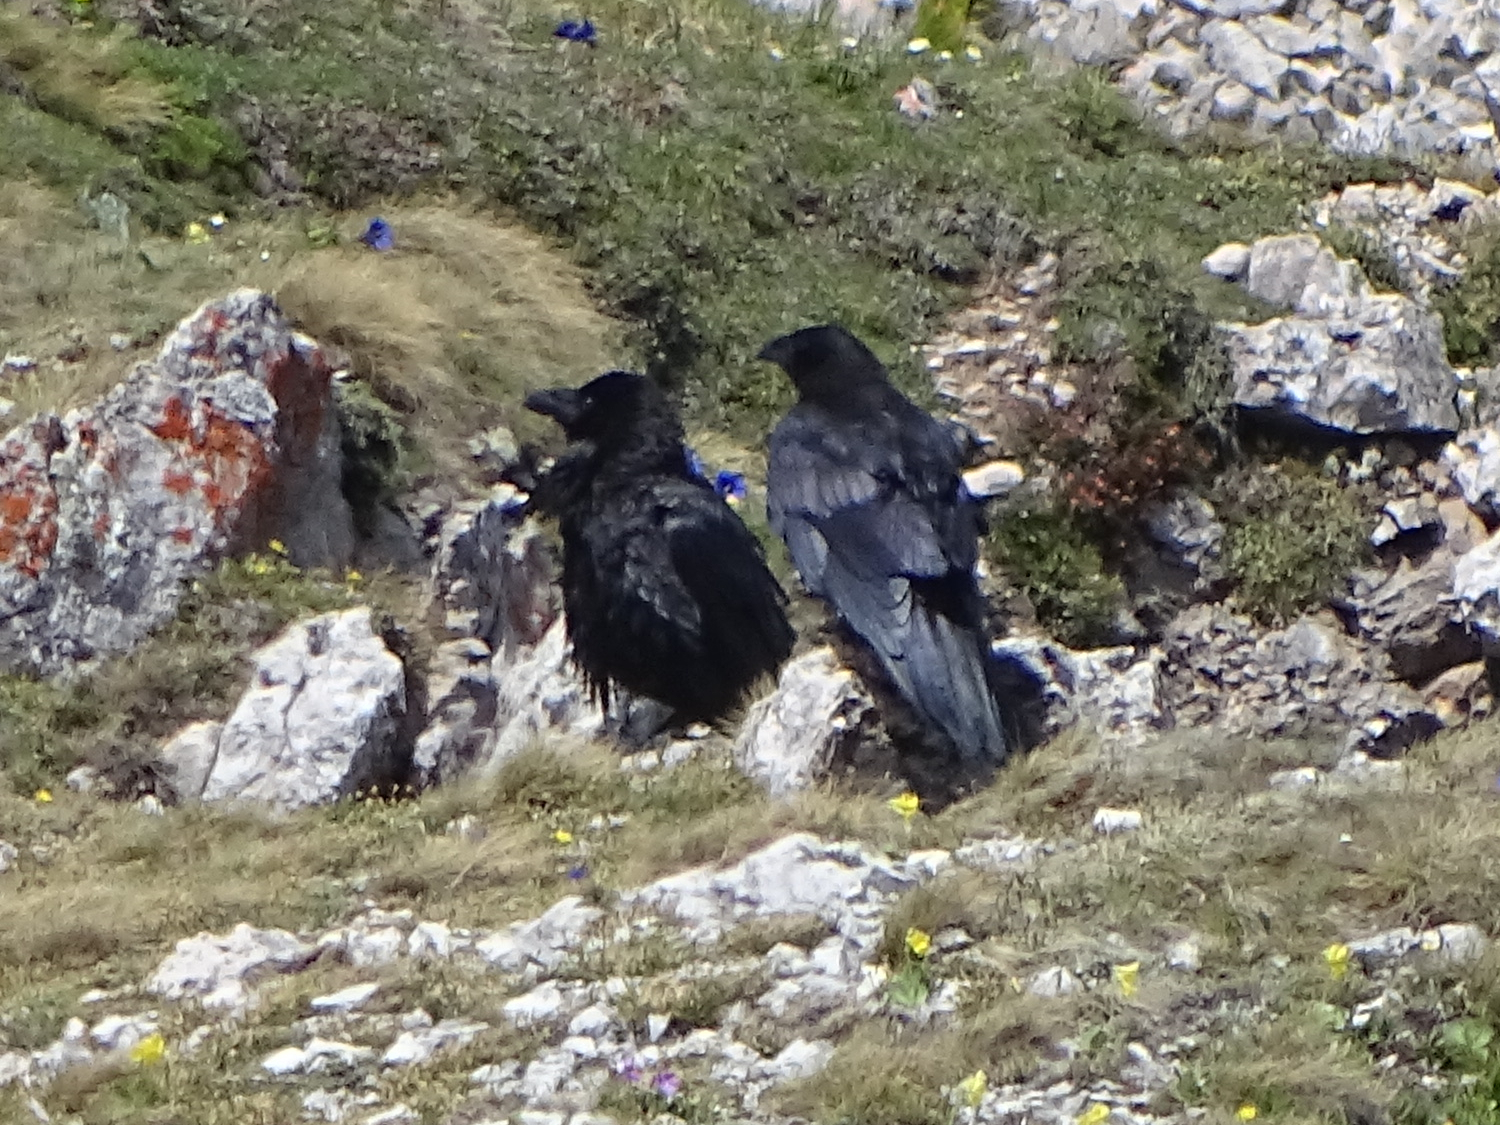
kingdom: Animalia
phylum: Chordata
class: Aves
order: Passeriformes
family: Corvidae
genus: Corvus
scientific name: Corvus corax
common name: Common raven
